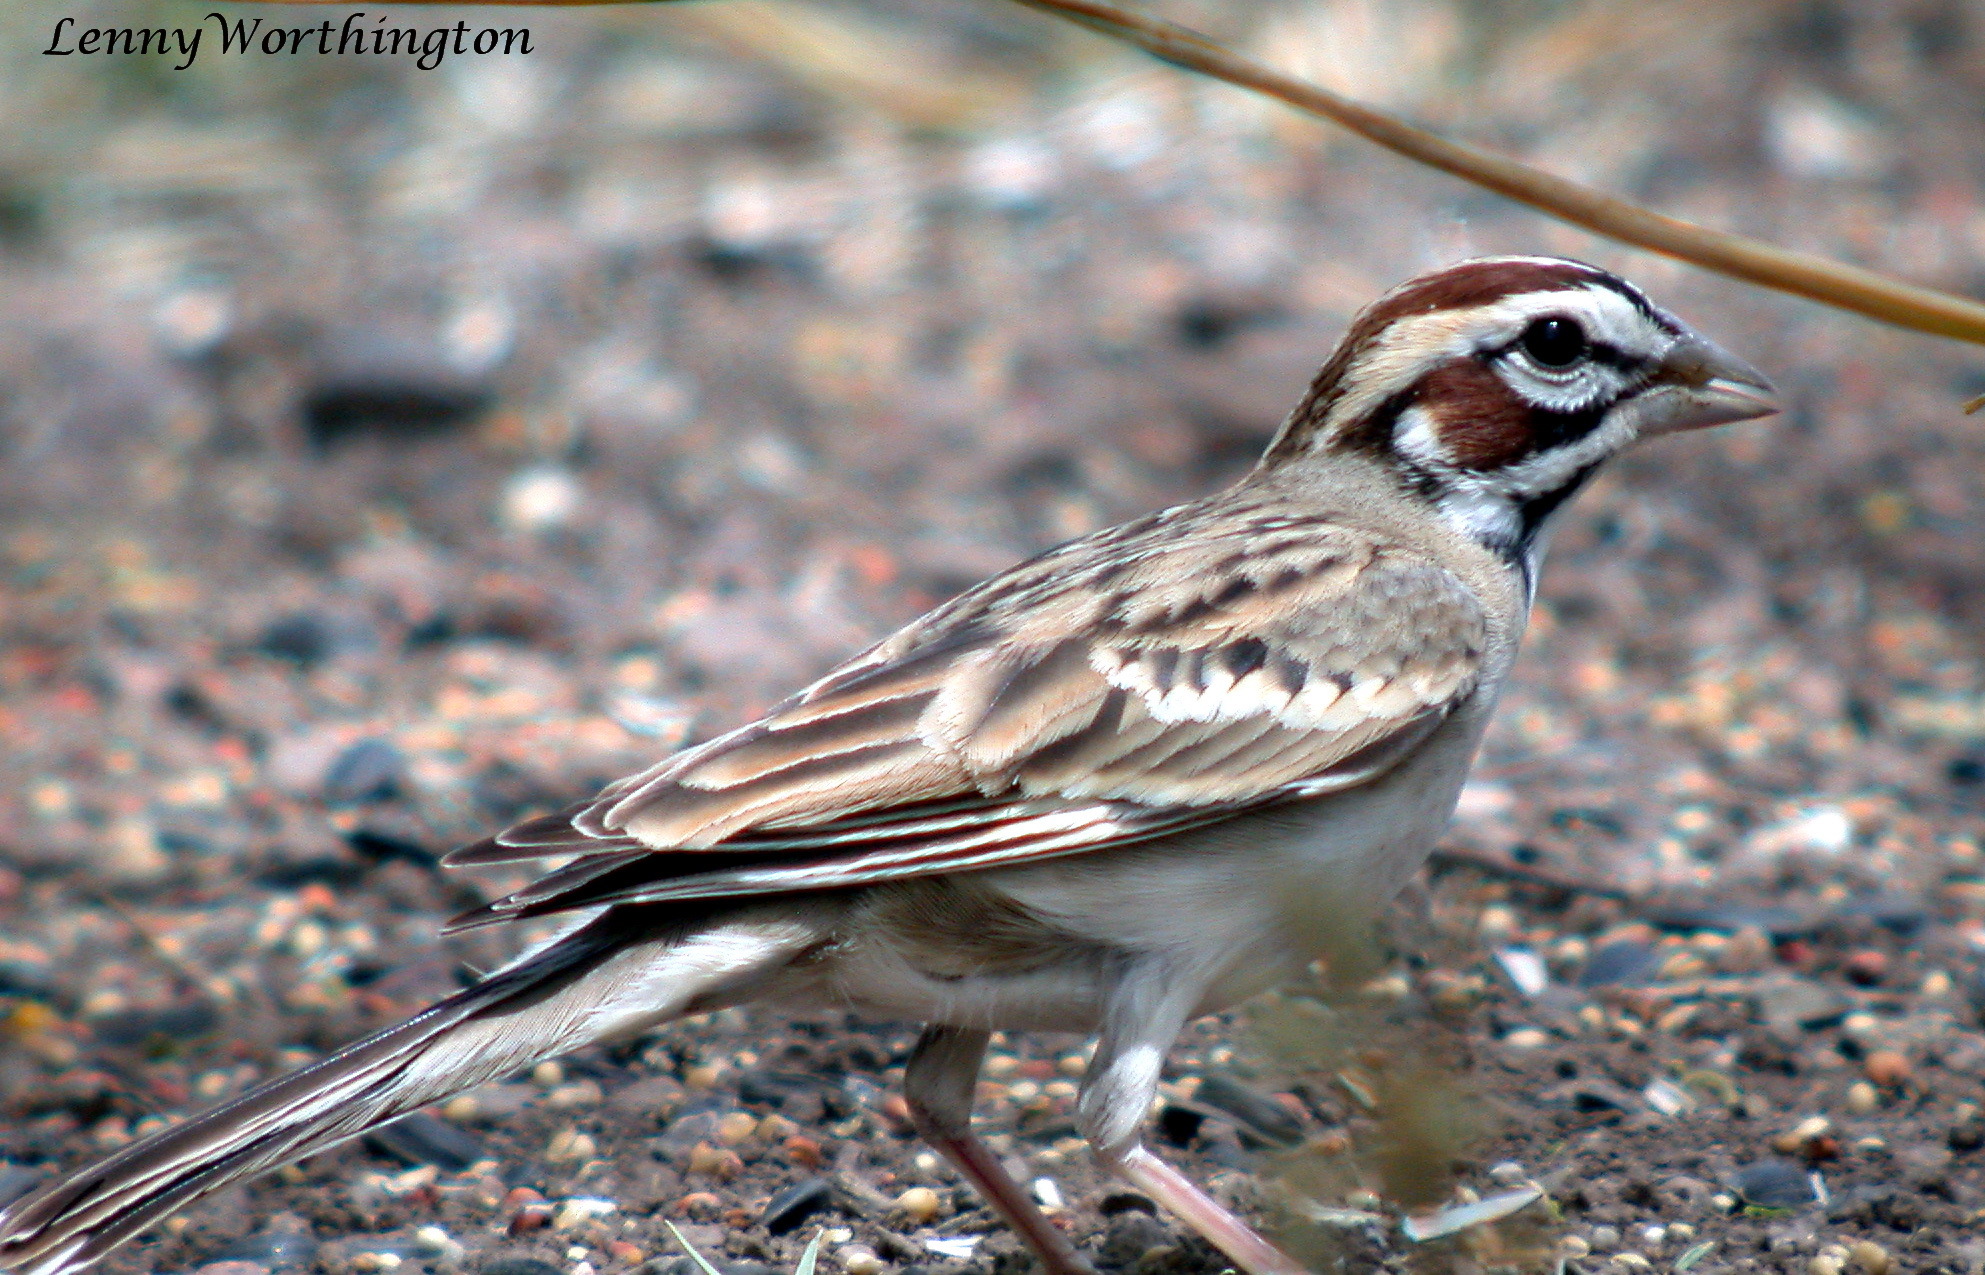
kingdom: Animalia
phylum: Chordata
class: Aves
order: Passeriformes
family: Passerellidae
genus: Chondestes
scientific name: Chondestes grammacus
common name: Lark sparrow
